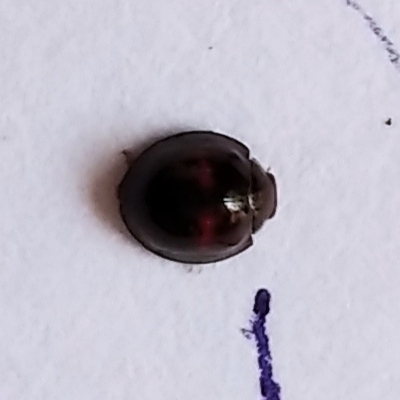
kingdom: Animalia
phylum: Arthropoda
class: Insecta
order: Coleoptera
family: Coccinellidae
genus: Chilocorus
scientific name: Chilocorus bipustulatus
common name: Heather ladybird
